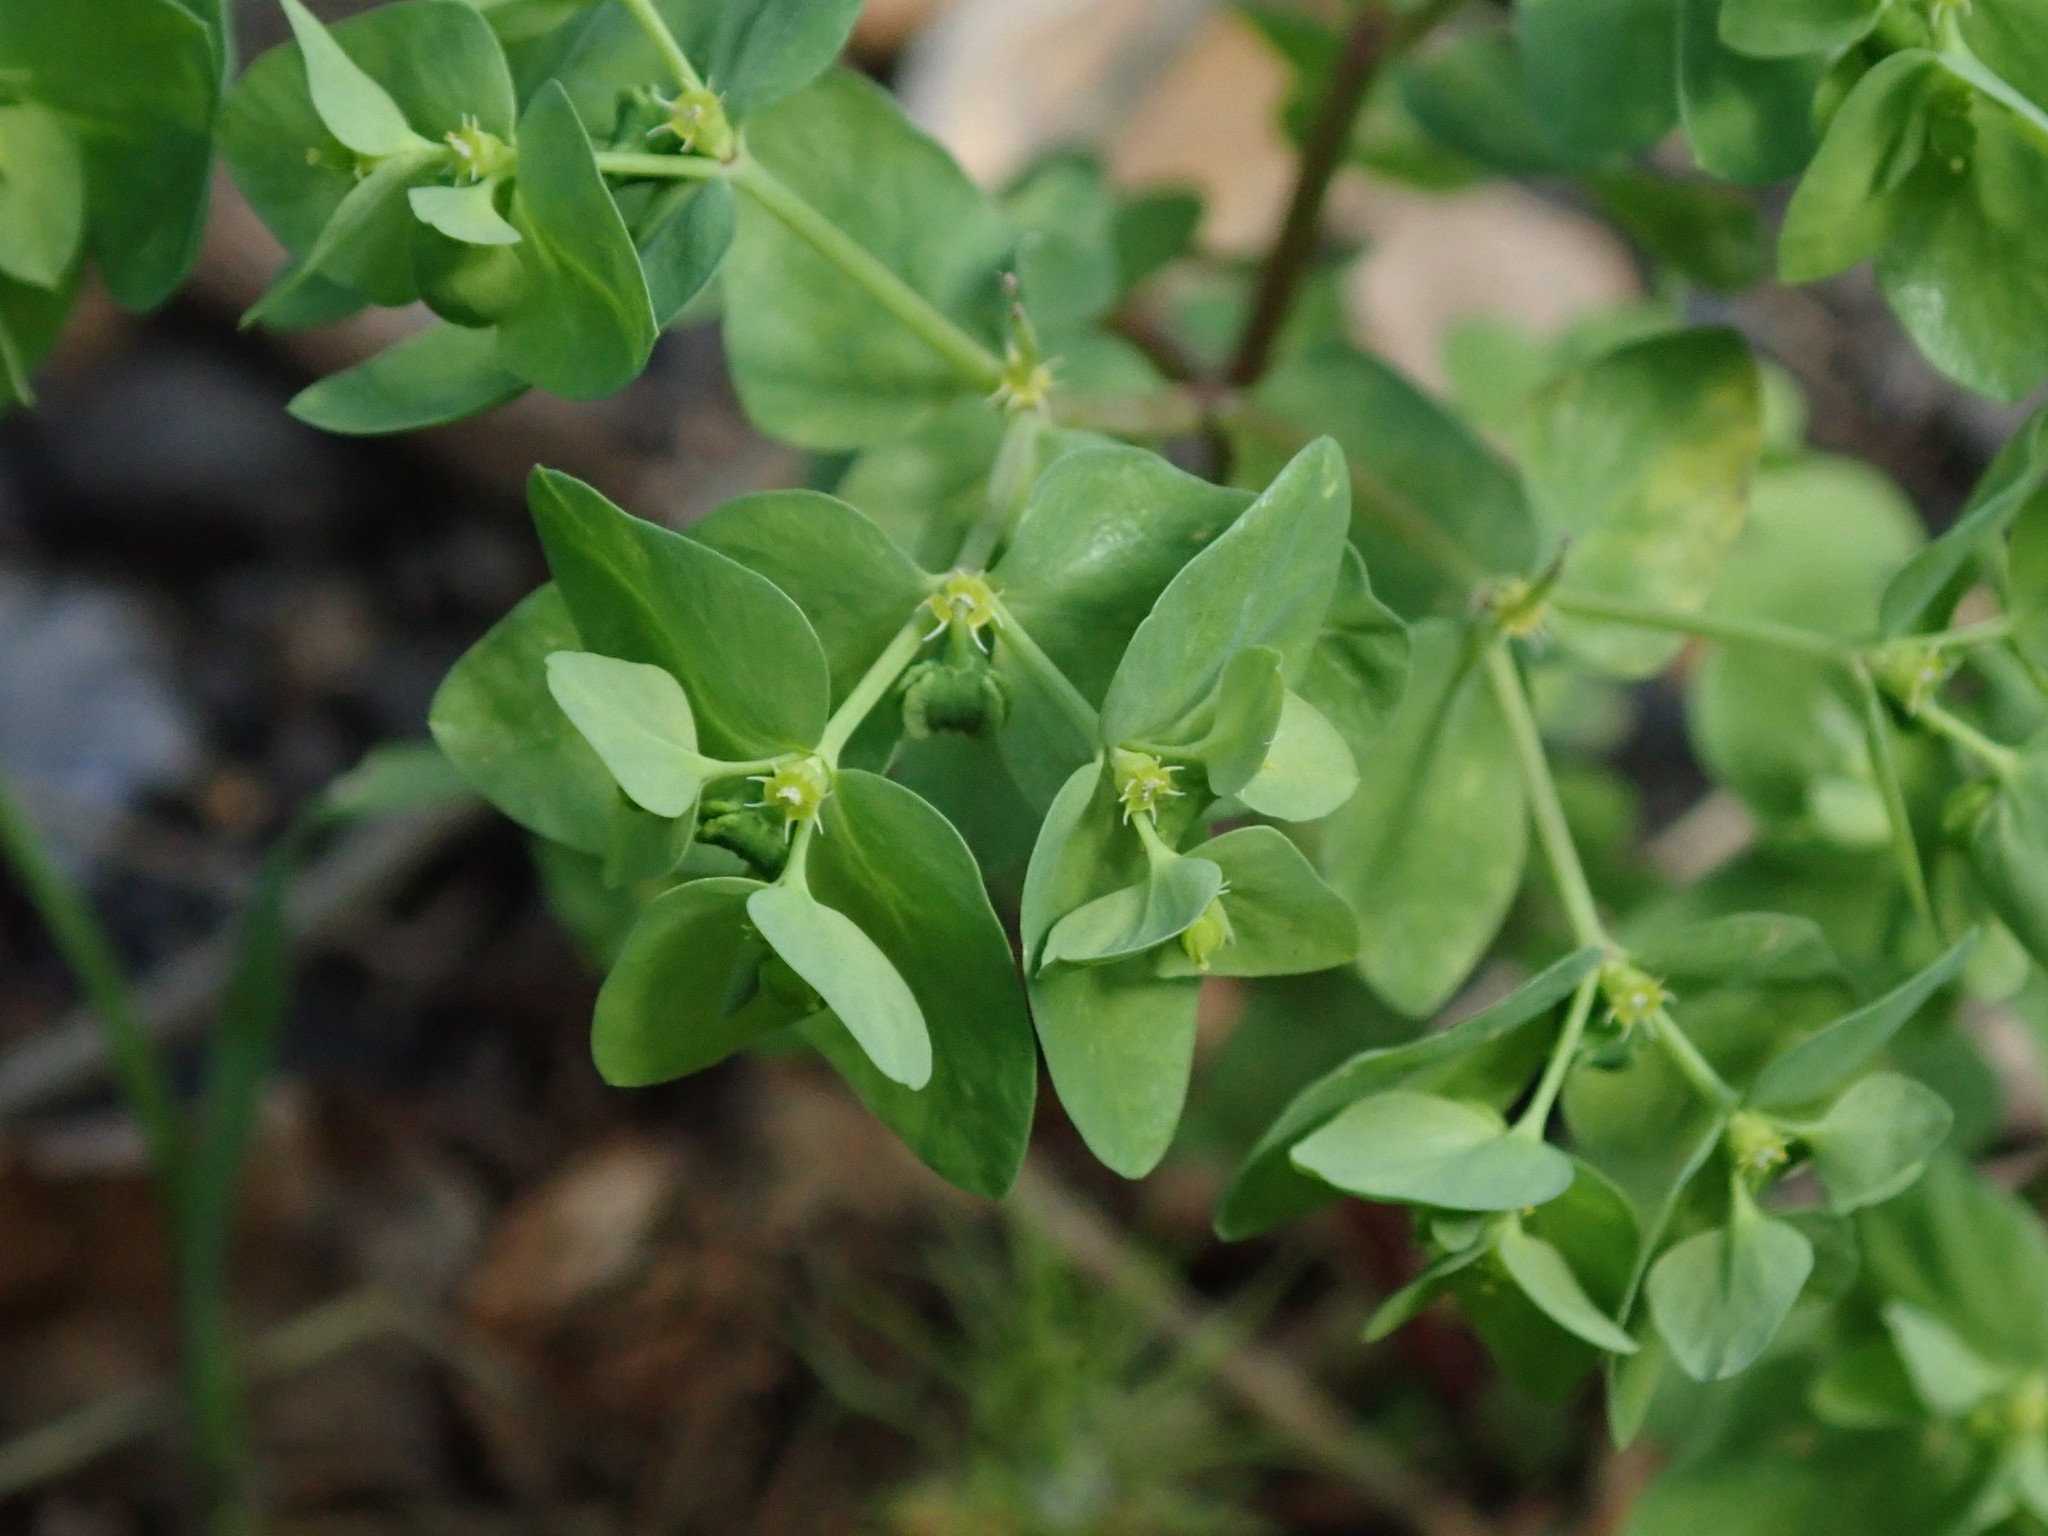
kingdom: Plantae
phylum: Tracheophyta
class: Magnoliopsida
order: Malpighiales
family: Euphorbiaceae
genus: Euphorbia
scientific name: Euphorbia peplus
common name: Petty spurge
